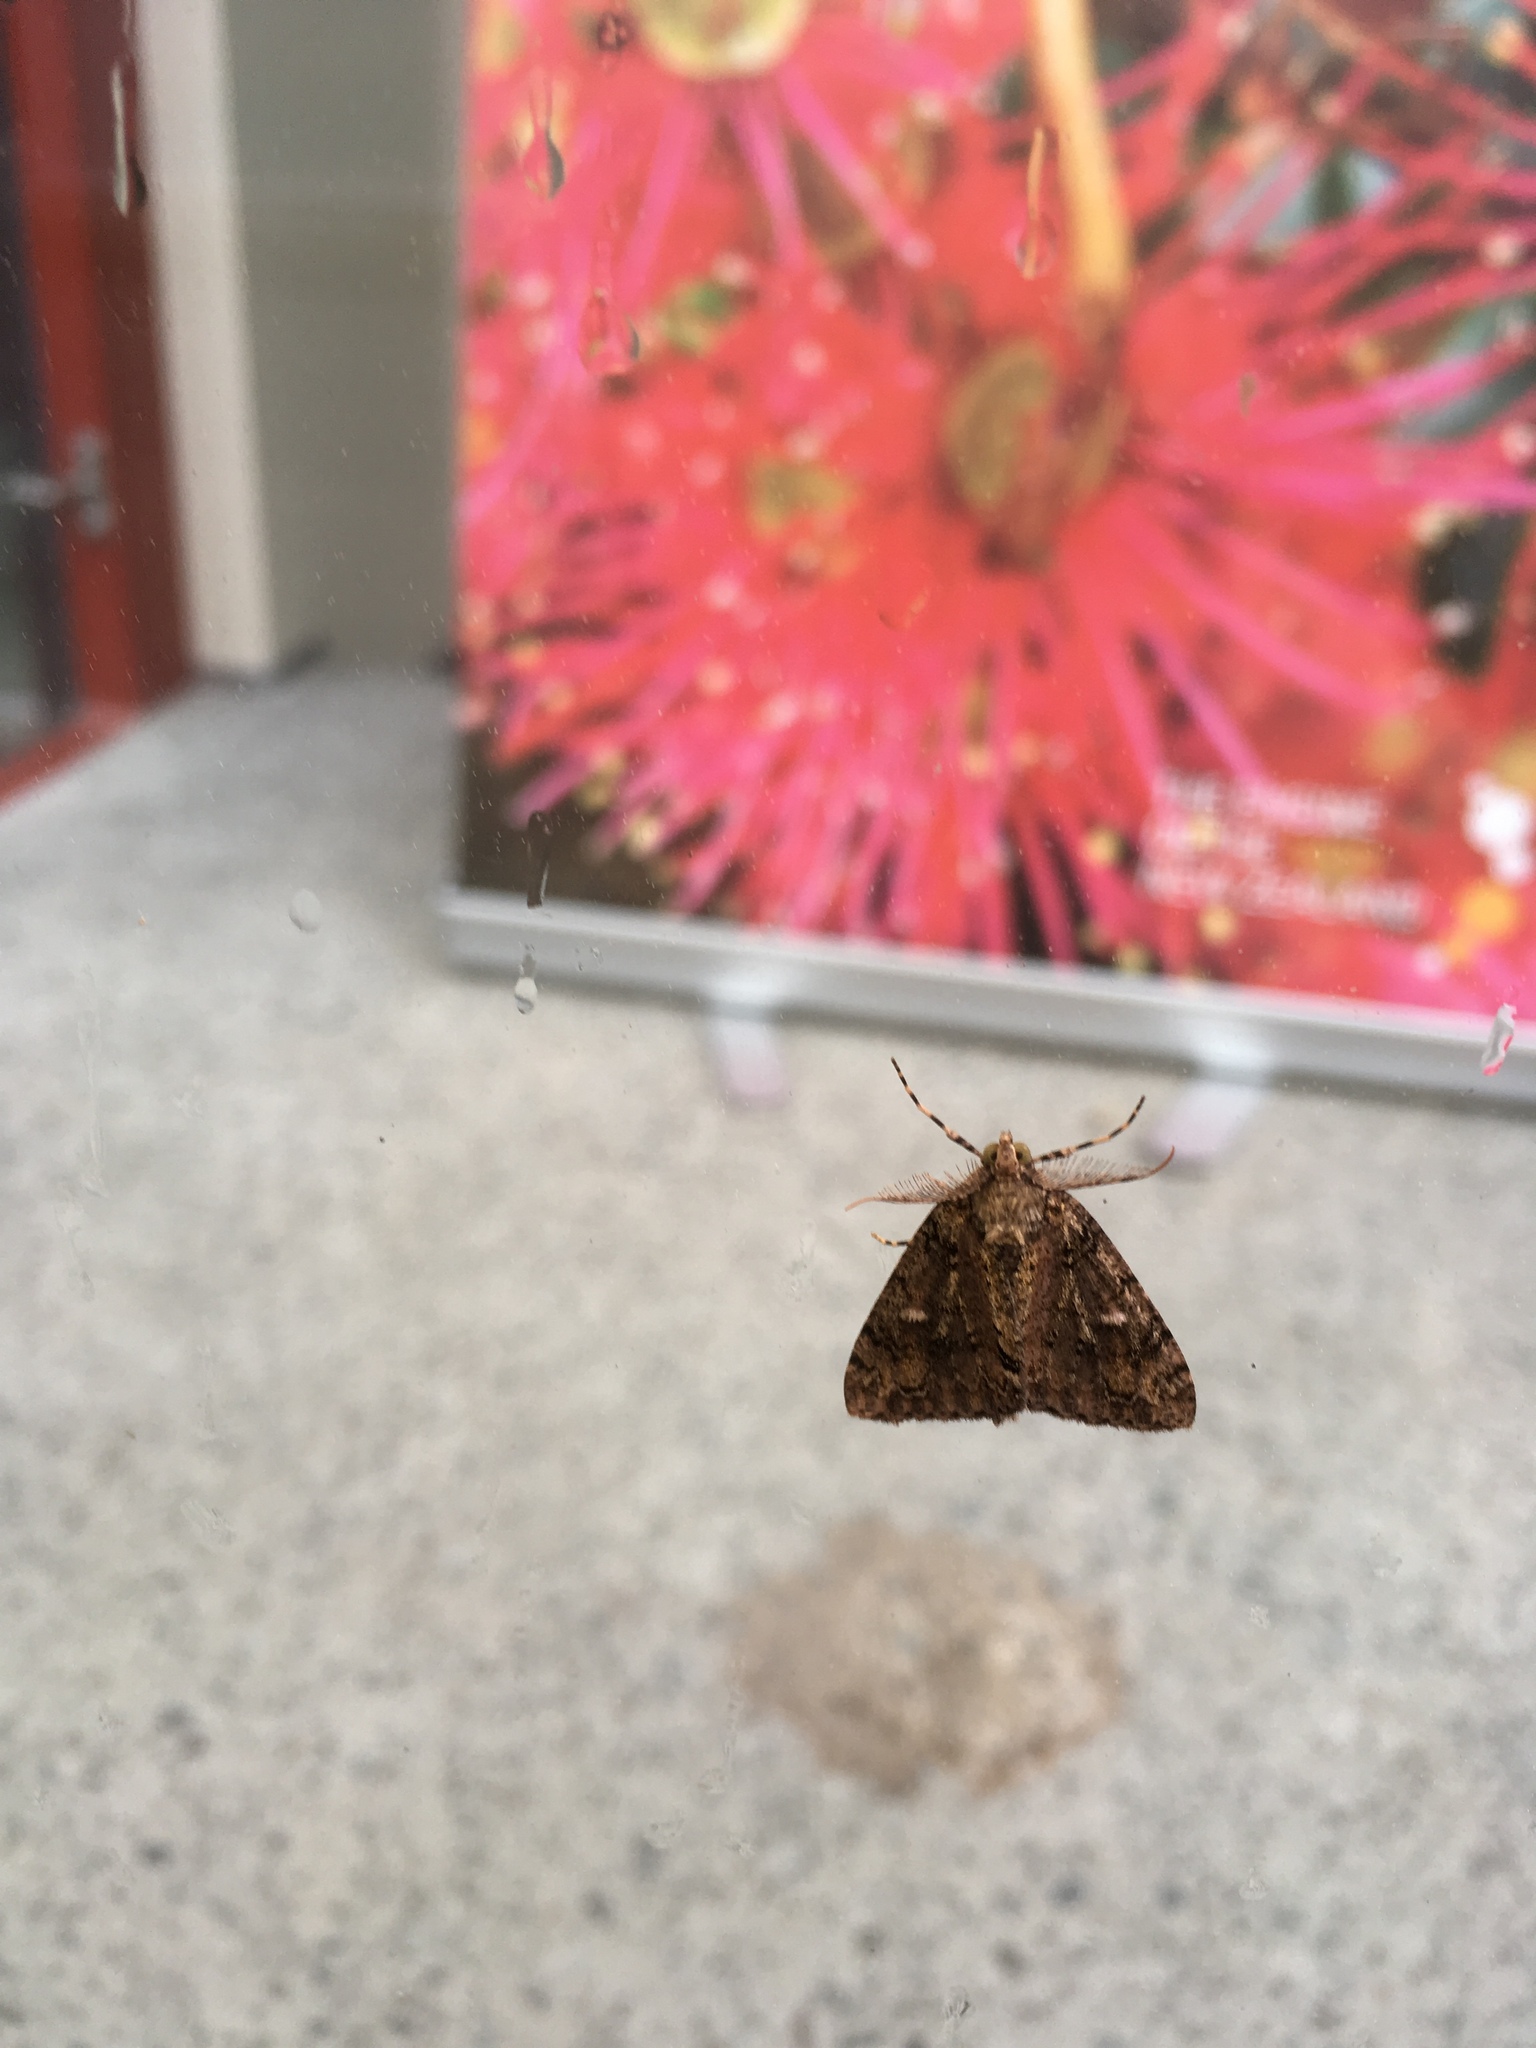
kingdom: Animalia
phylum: Arthropoda
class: Insecta
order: Lepidoptera
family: Geometridae
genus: Pseudocoremia
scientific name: Pseudocoremia suavis
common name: Common forest looper
